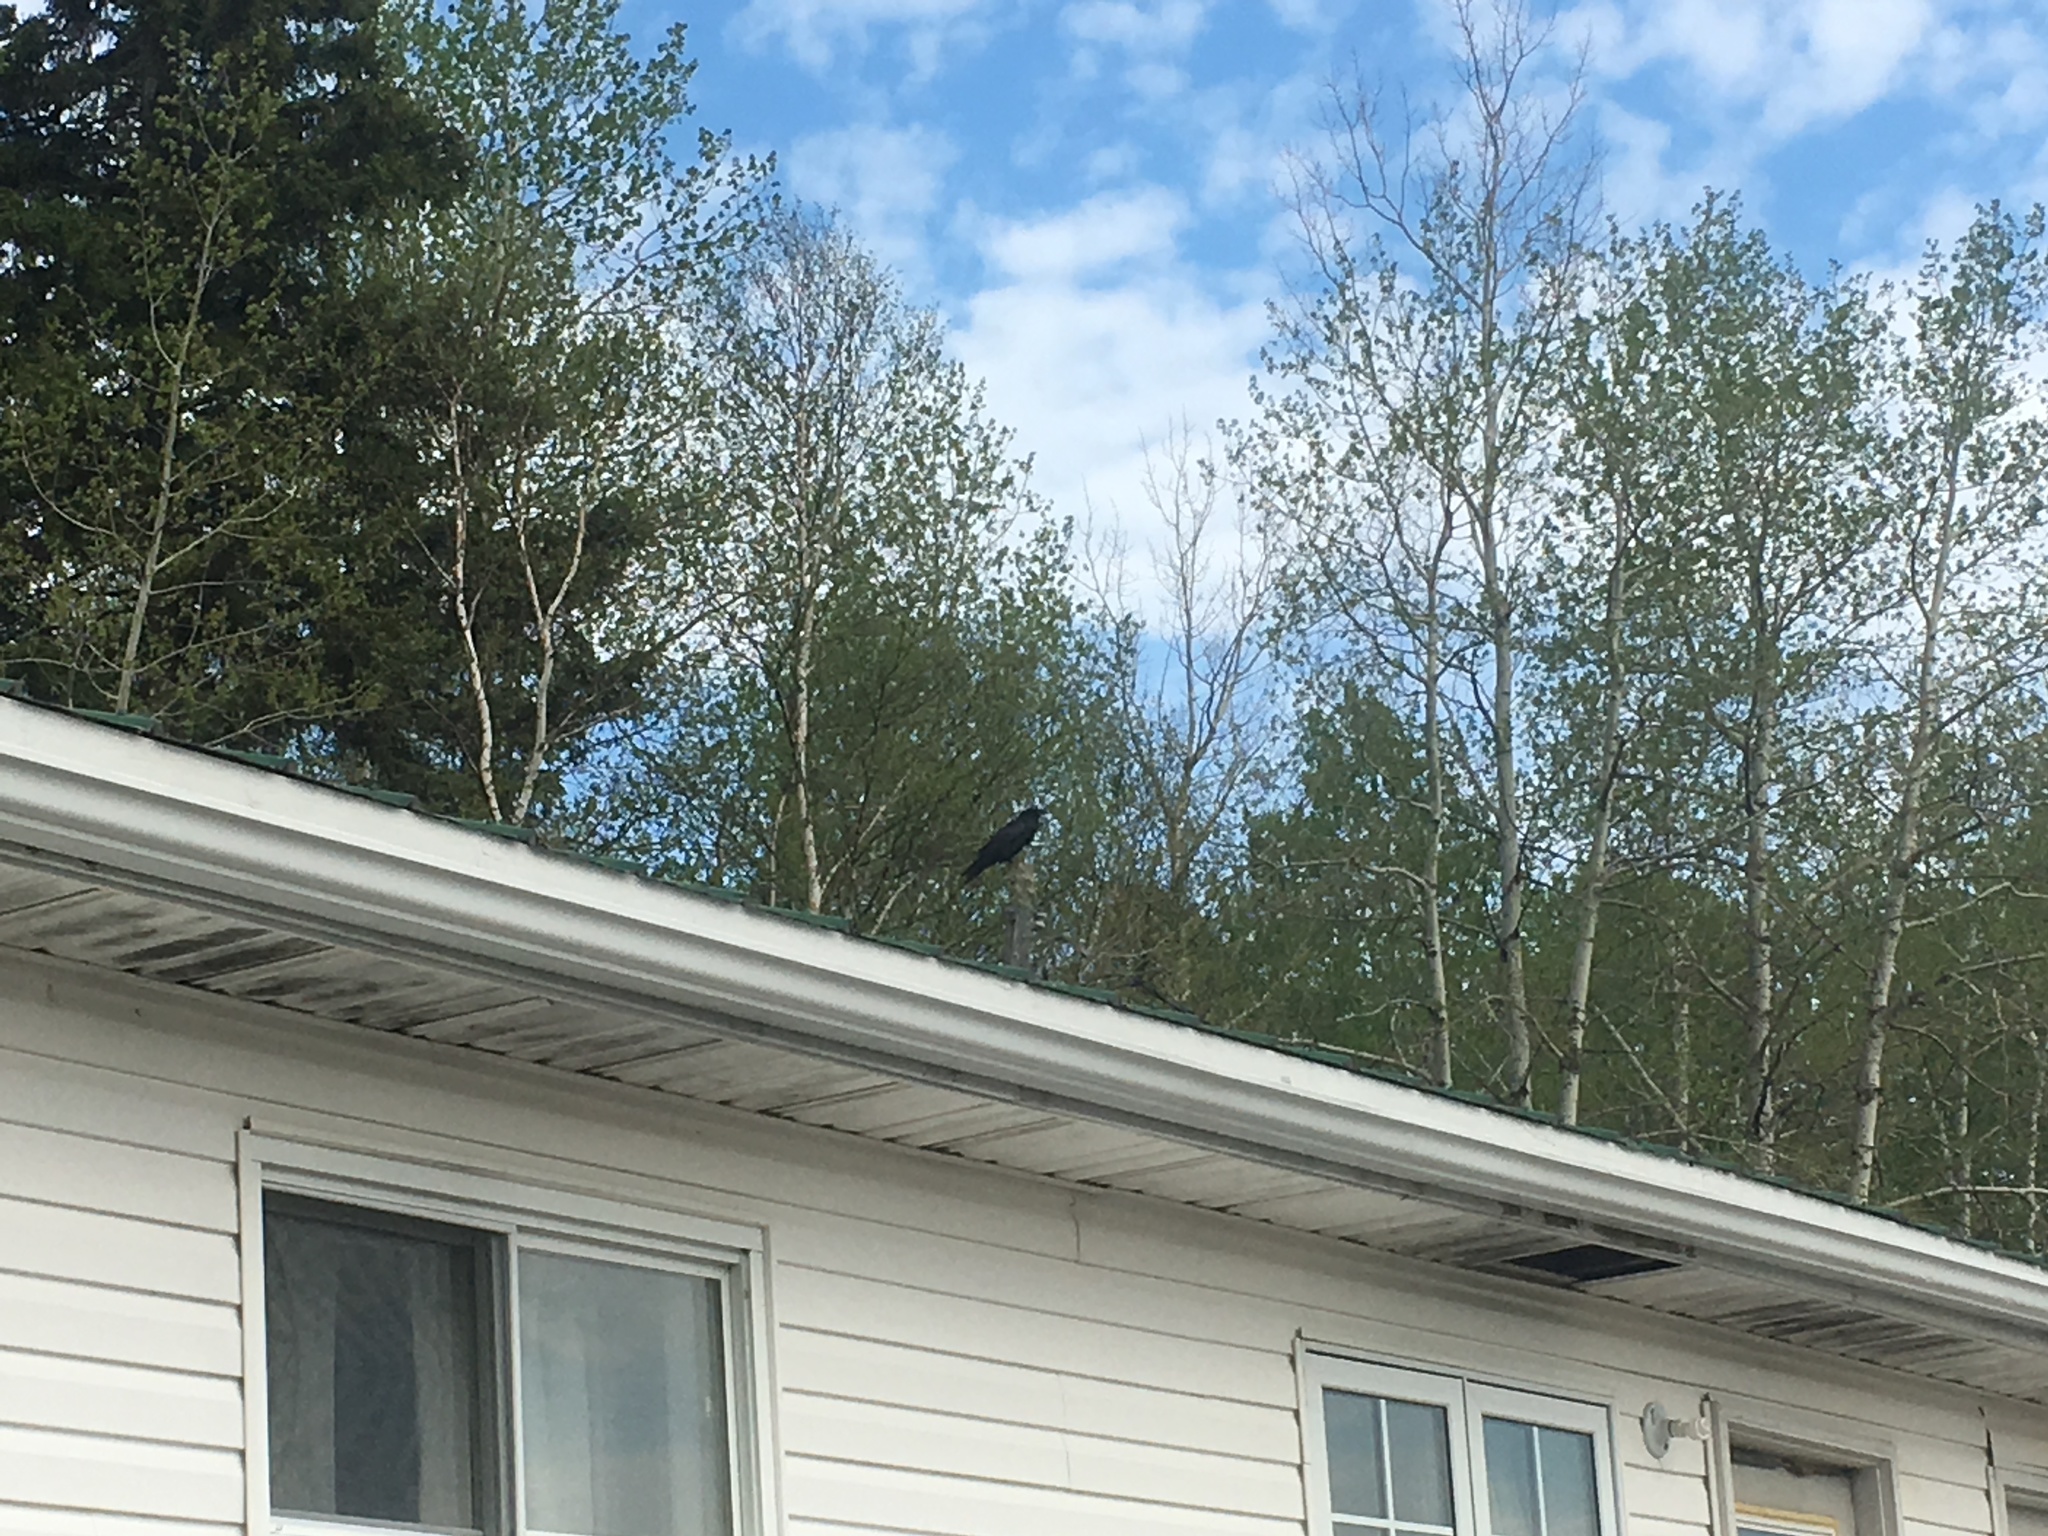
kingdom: Animalia
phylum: Chordata
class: Aves
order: Passeriformes
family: Corvidae
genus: Corvus
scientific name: Corvus corax
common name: Common raven
